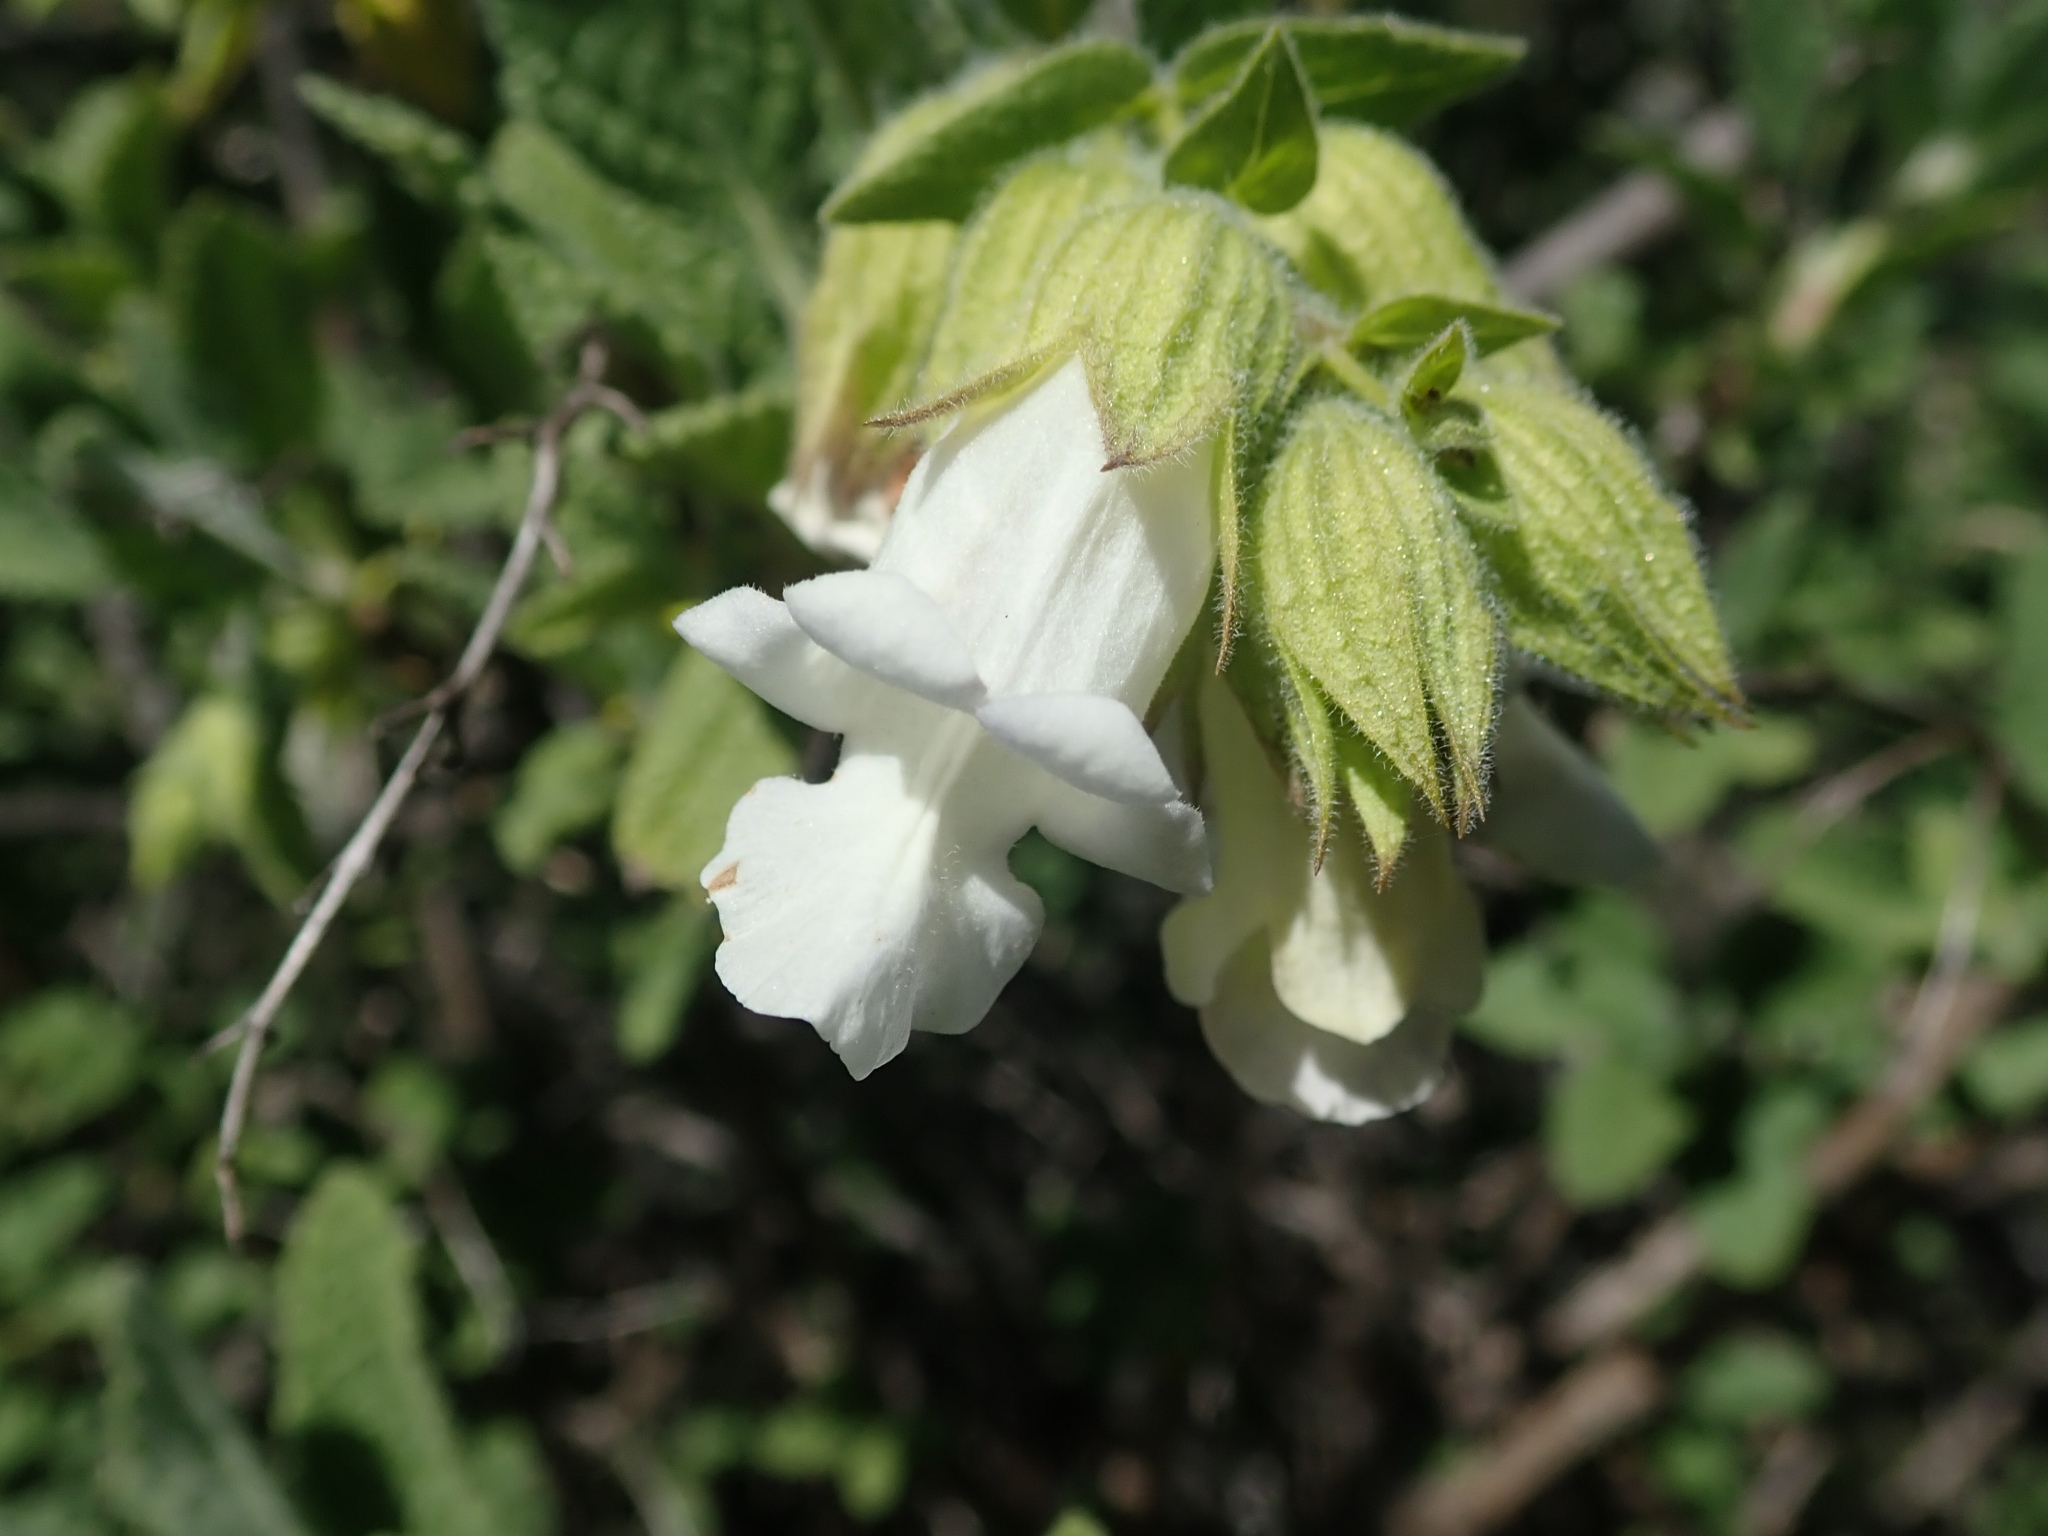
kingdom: Plantae
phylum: Tracheophyta
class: Magnoliopsida
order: Lamiales
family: Lamiaceae
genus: Lepechinia
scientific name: Lepechinia calycina
